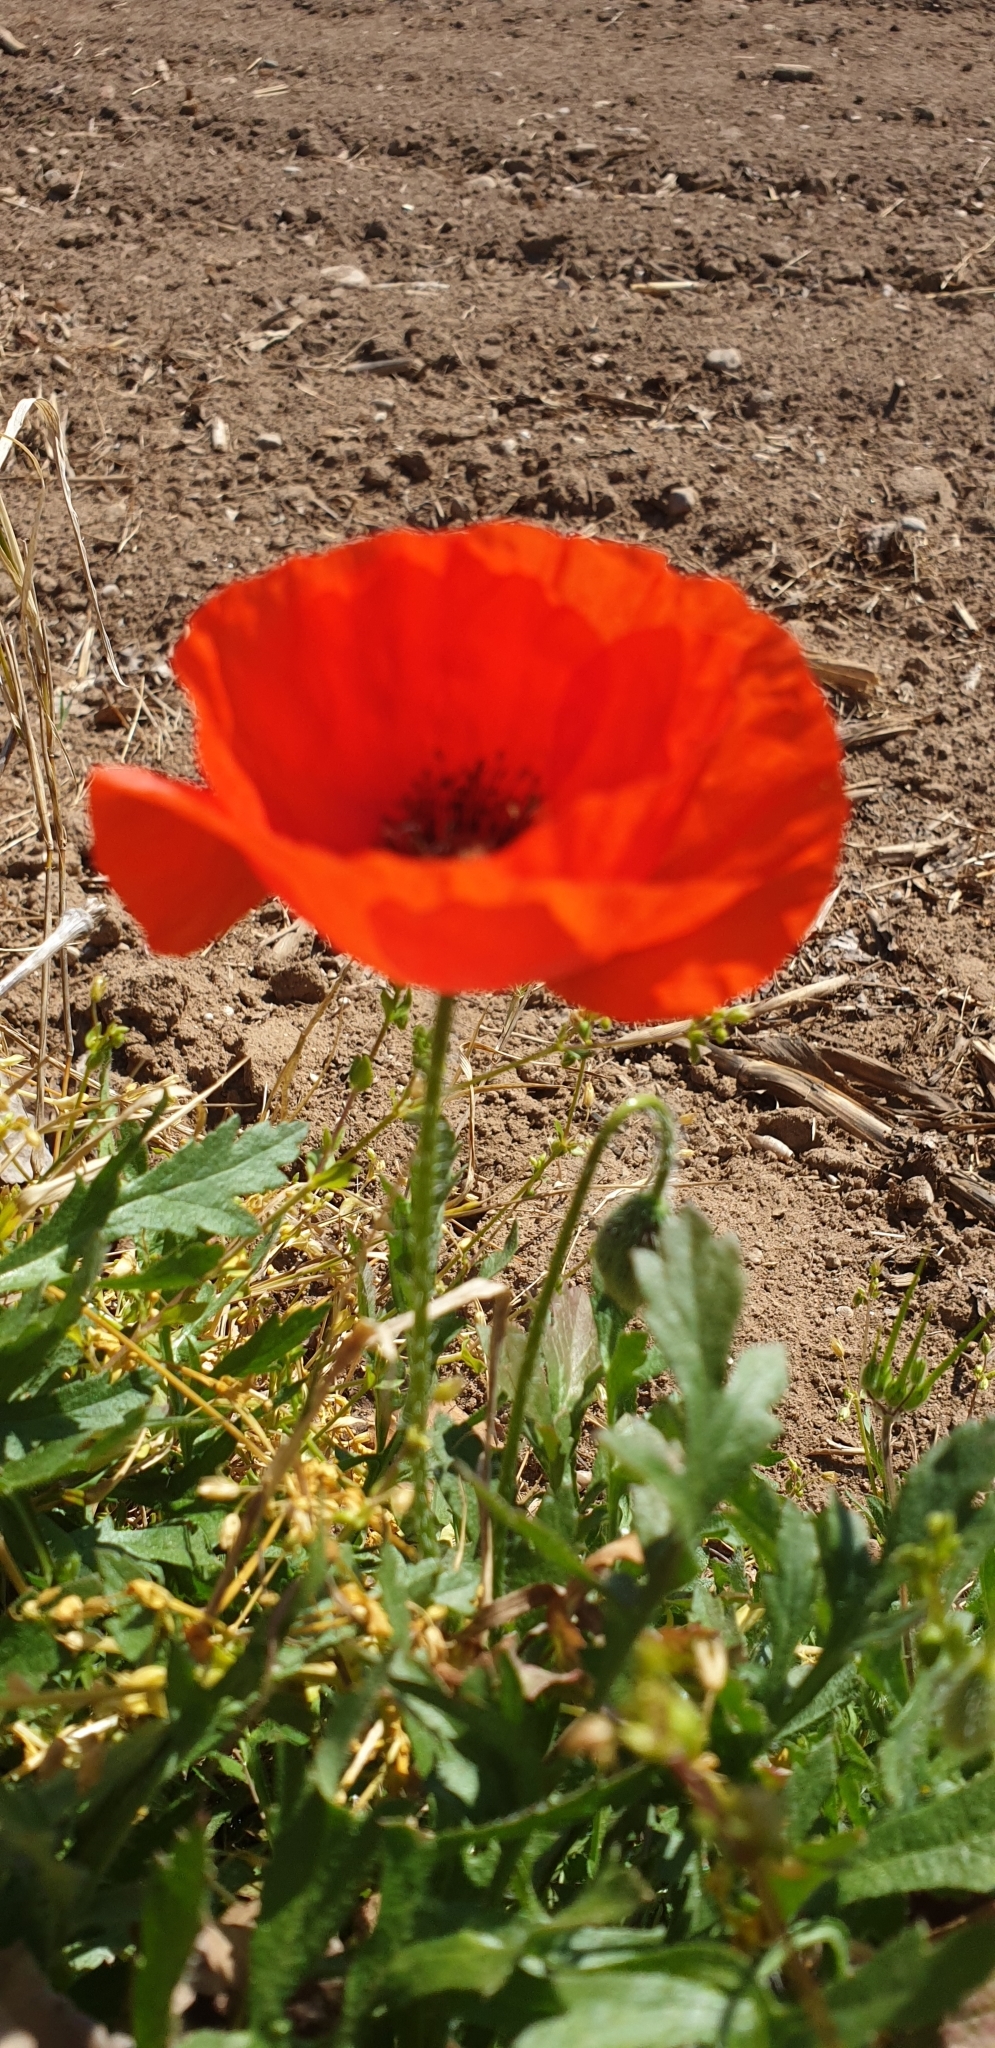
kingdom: Plantae
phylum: Tracheophyta
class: Magnoliopsida
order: Ranunculales
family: Papaveraceae
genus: Papaver
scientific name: Papaver rhoeas
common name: Corn poppy
